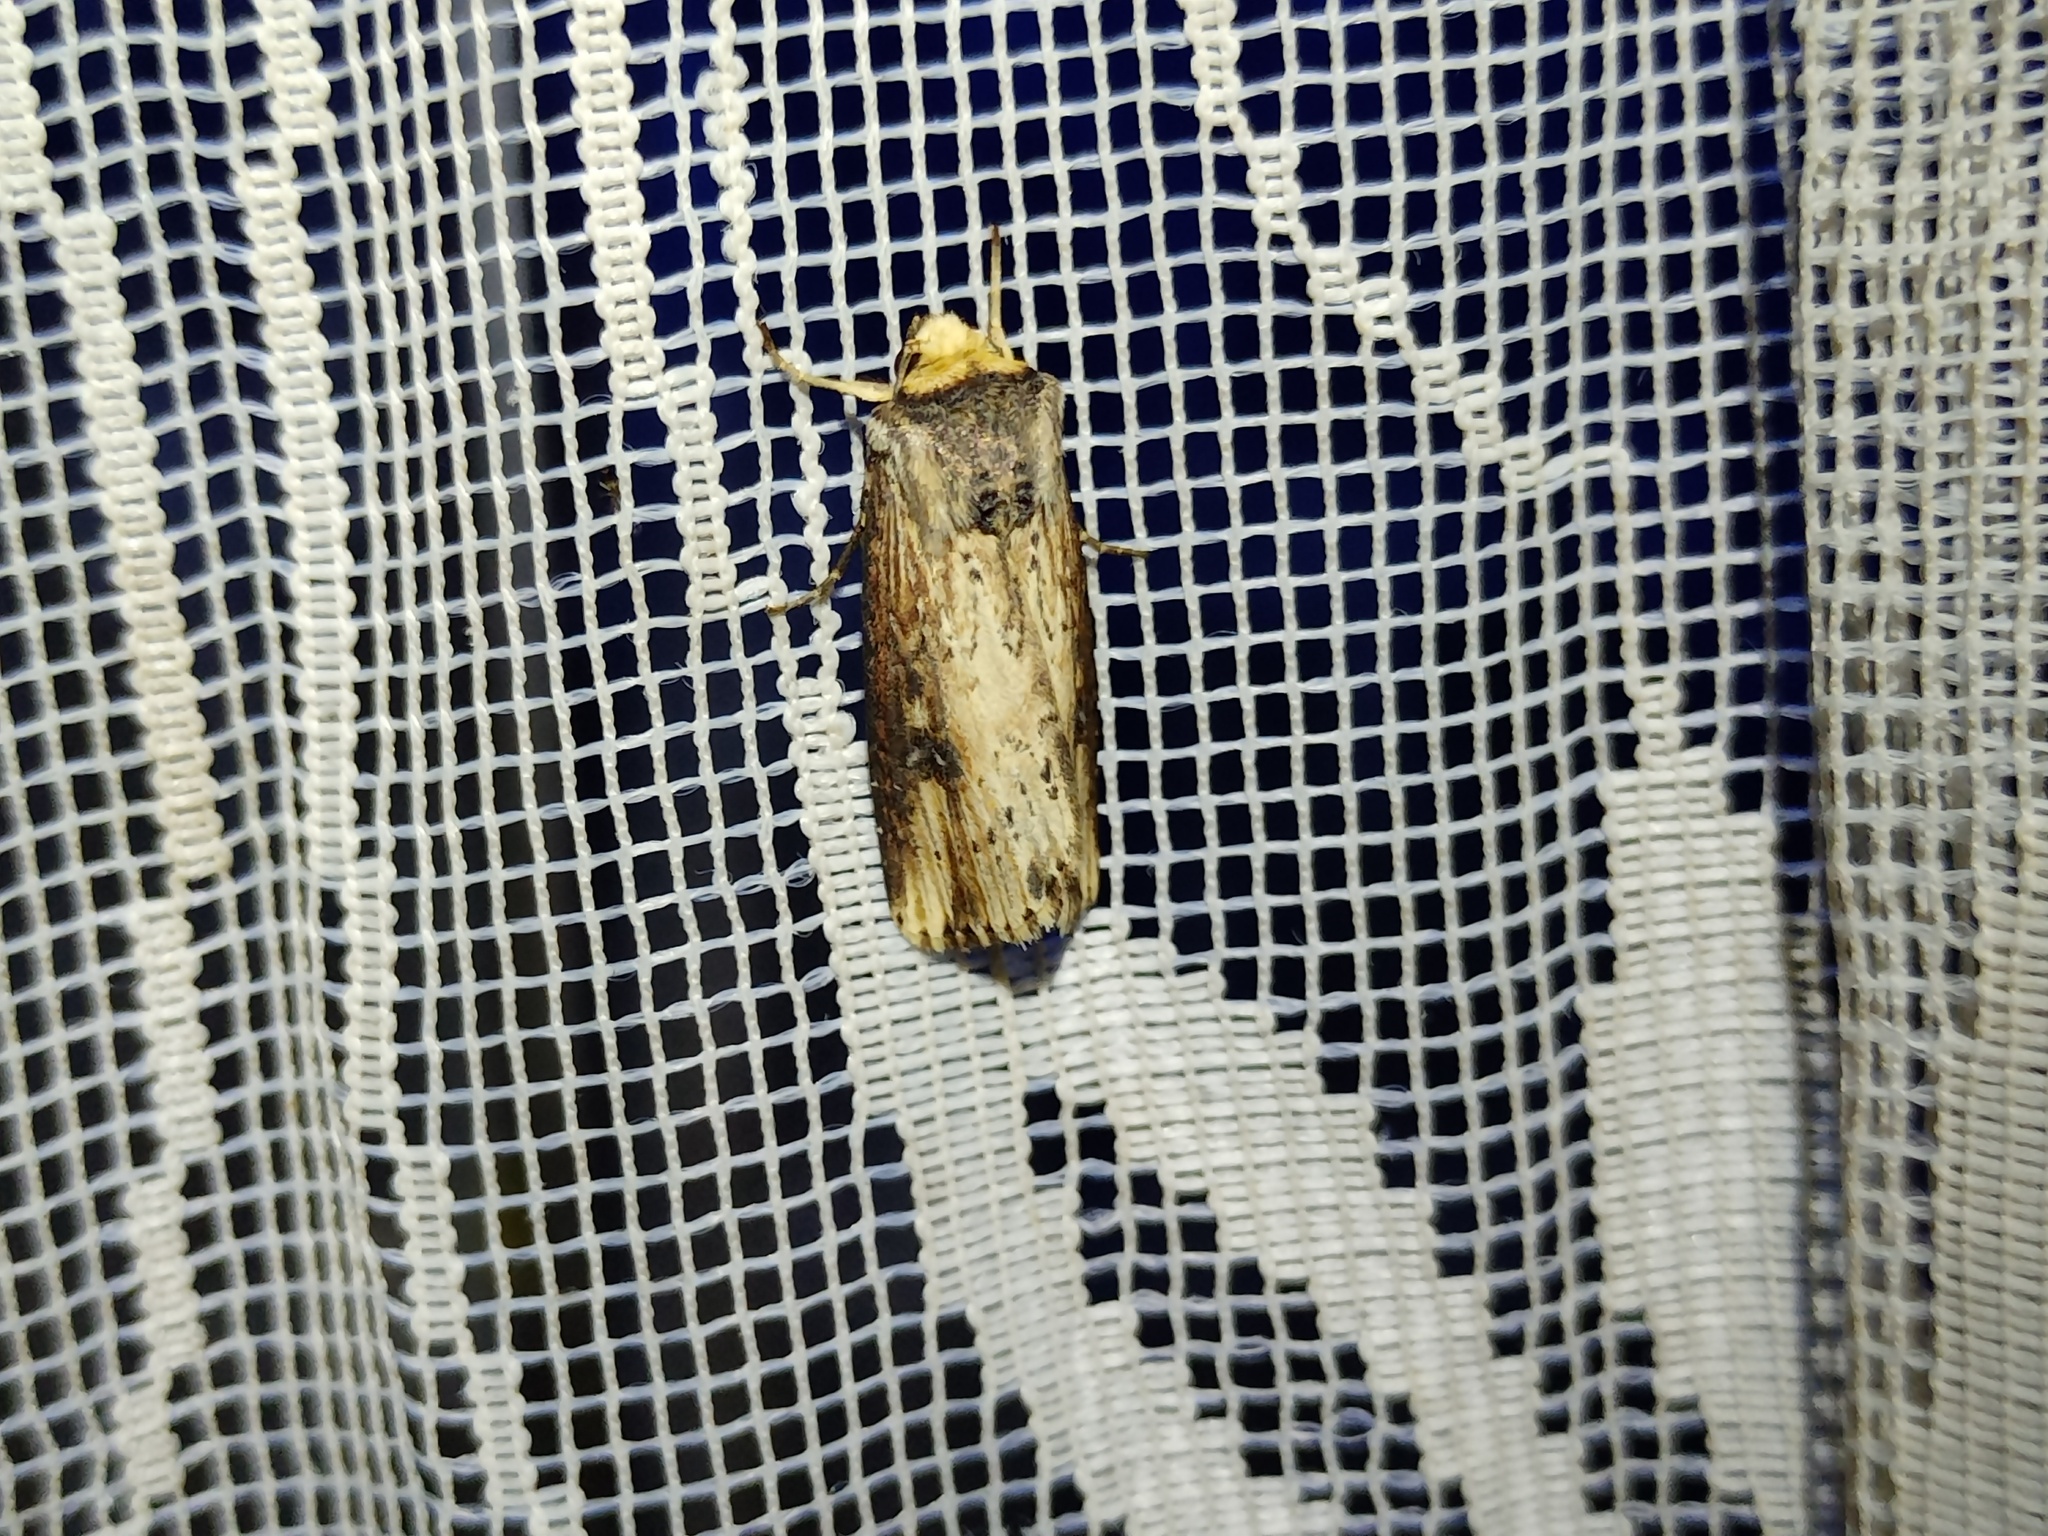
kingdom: Animalia
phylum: Arthropoda
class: Insecta
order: Lepidoptera
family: Noctuidae
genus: Axylia
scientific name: Axylia putris
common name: Flame
